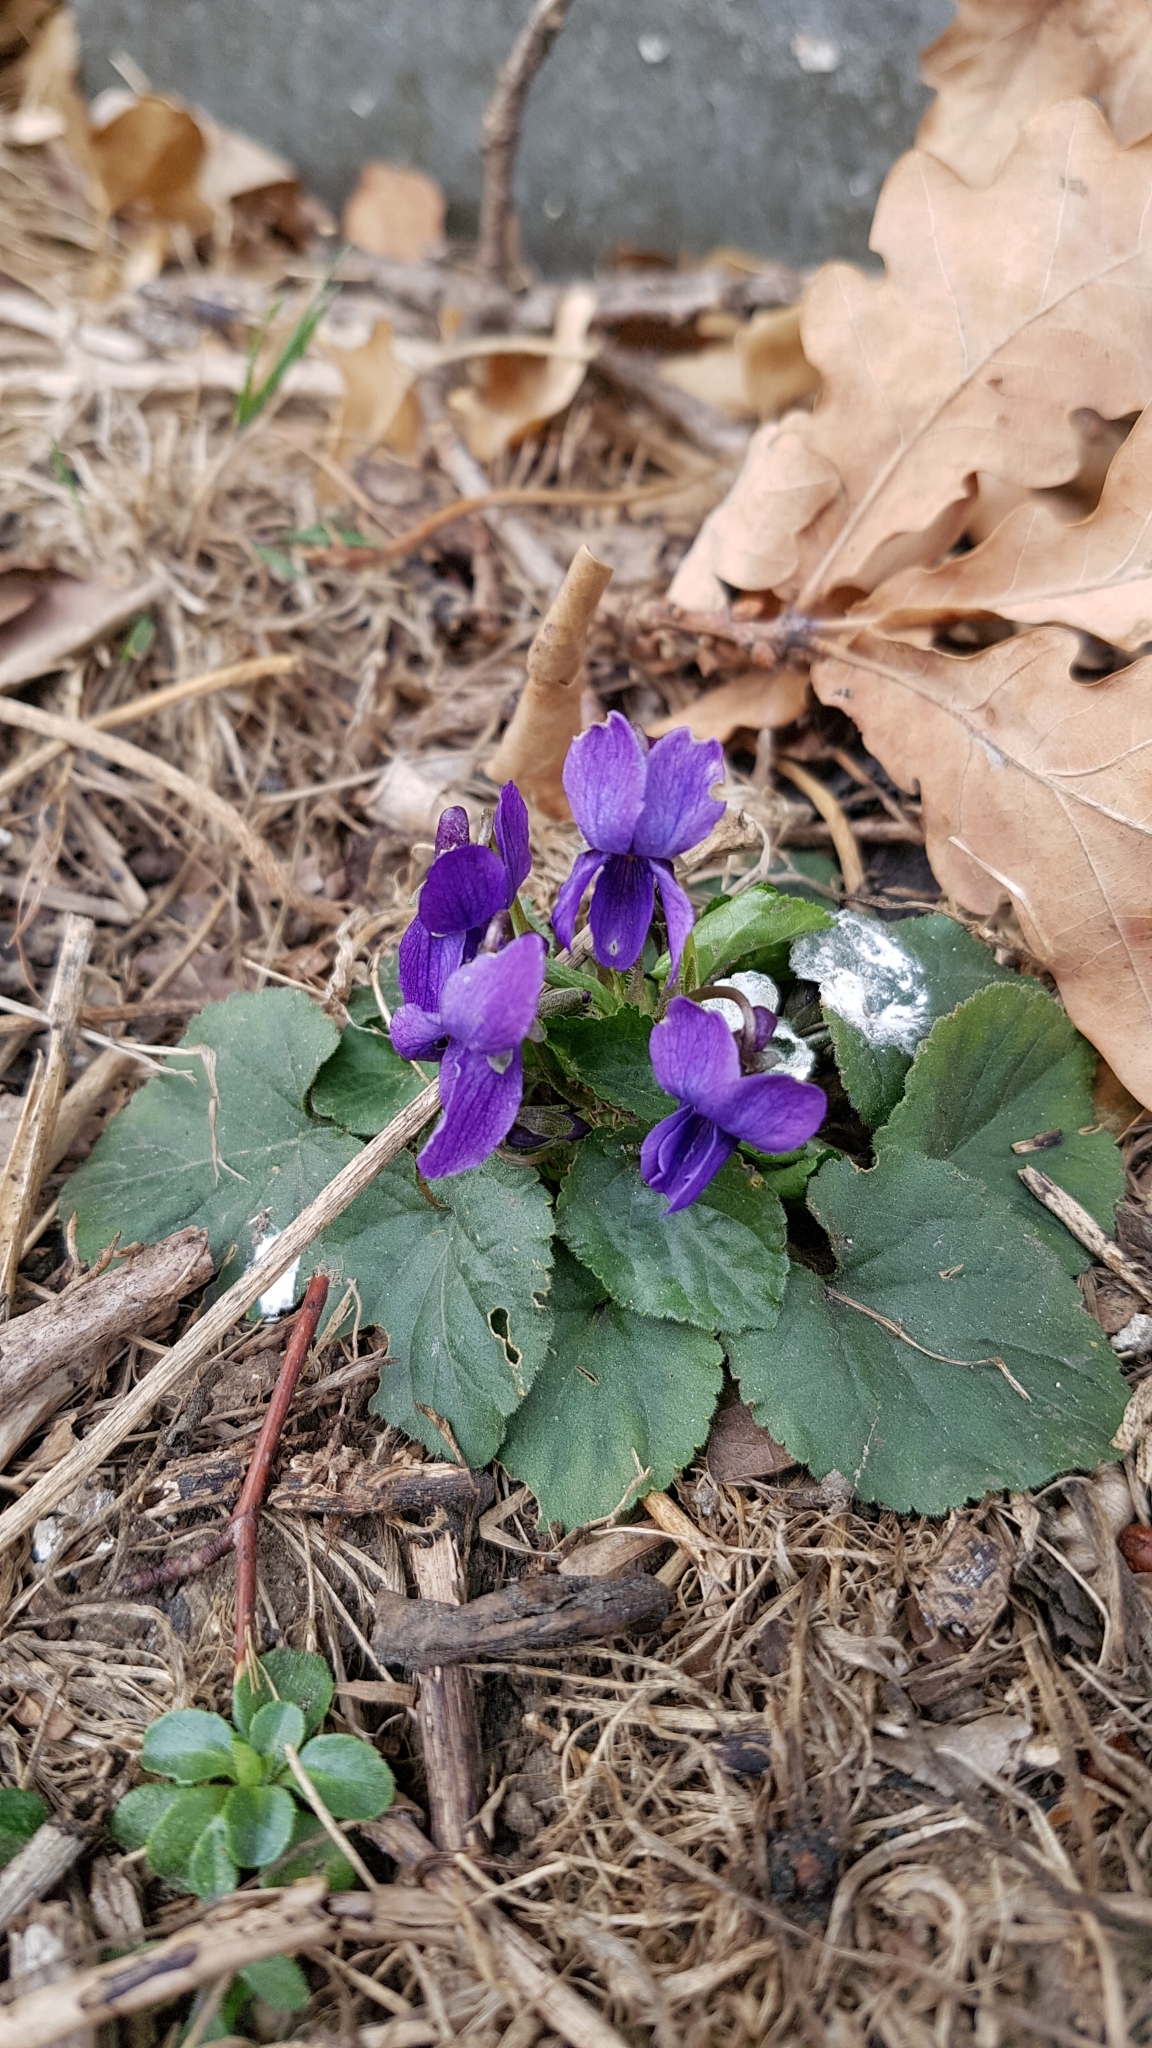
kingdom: Plantae
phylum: Tracheophyta
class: Magnoliopsida
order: Malpighiales
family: Violaceae
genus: Viola
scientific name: Viola odorata
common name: Sweet violet
